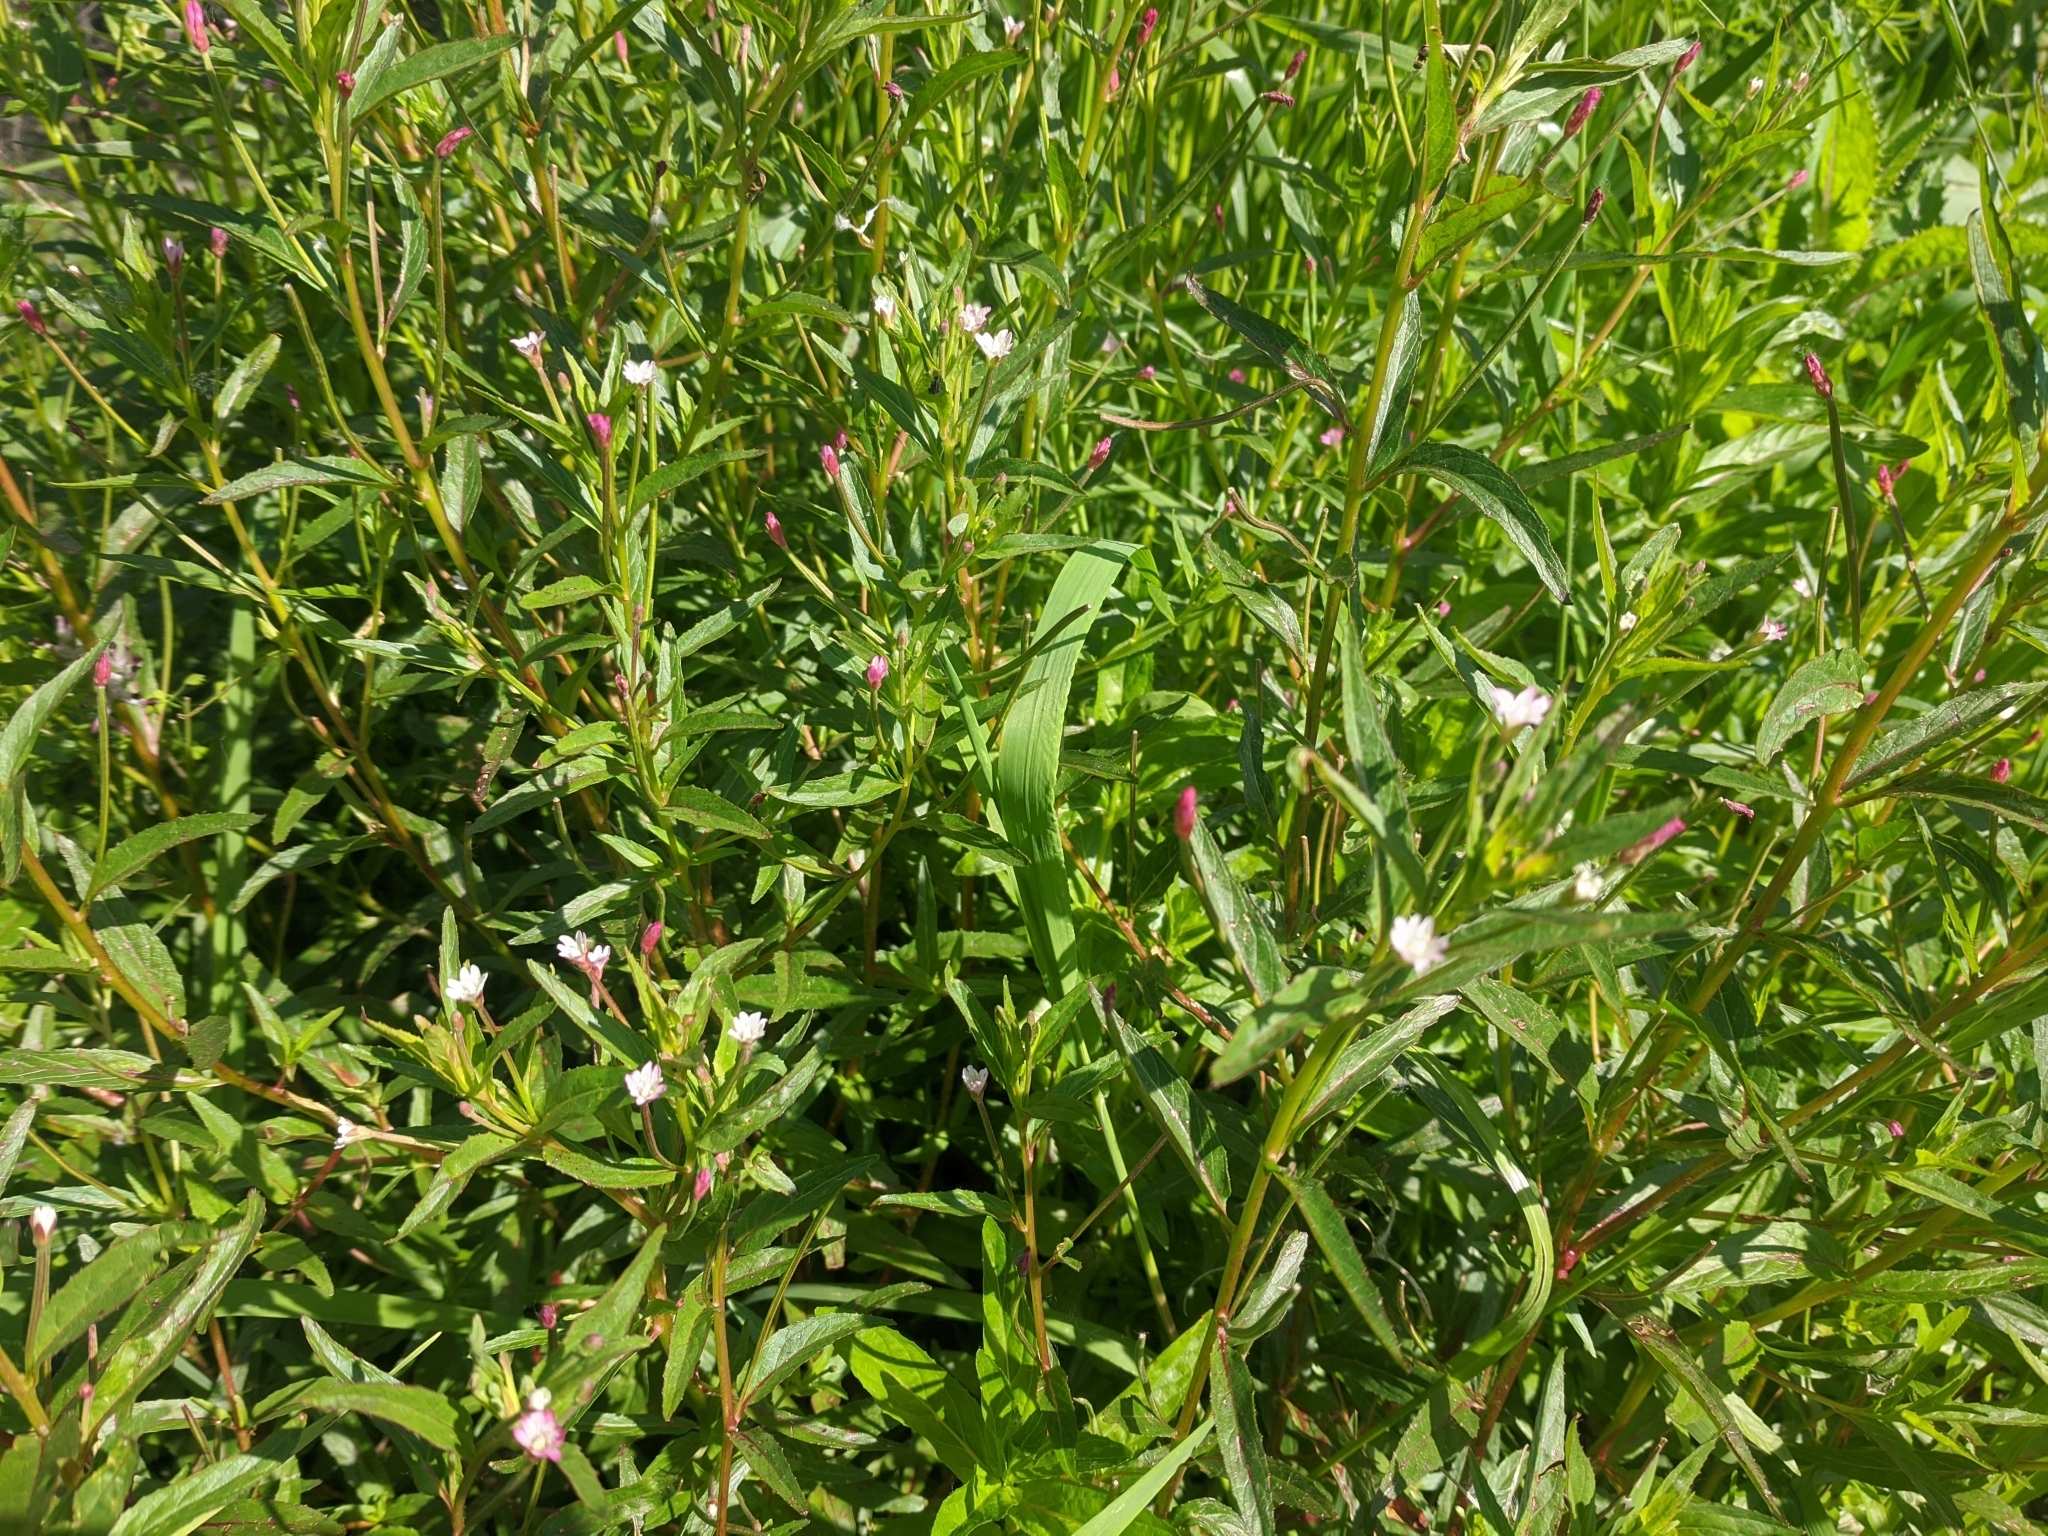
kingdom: Plantae
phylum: Tracheophyta
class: Magnoliopsida
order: Myrtales
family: Onagraceae
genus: Epilobium
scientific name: Epilobium ciliatum
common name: American willowherb
